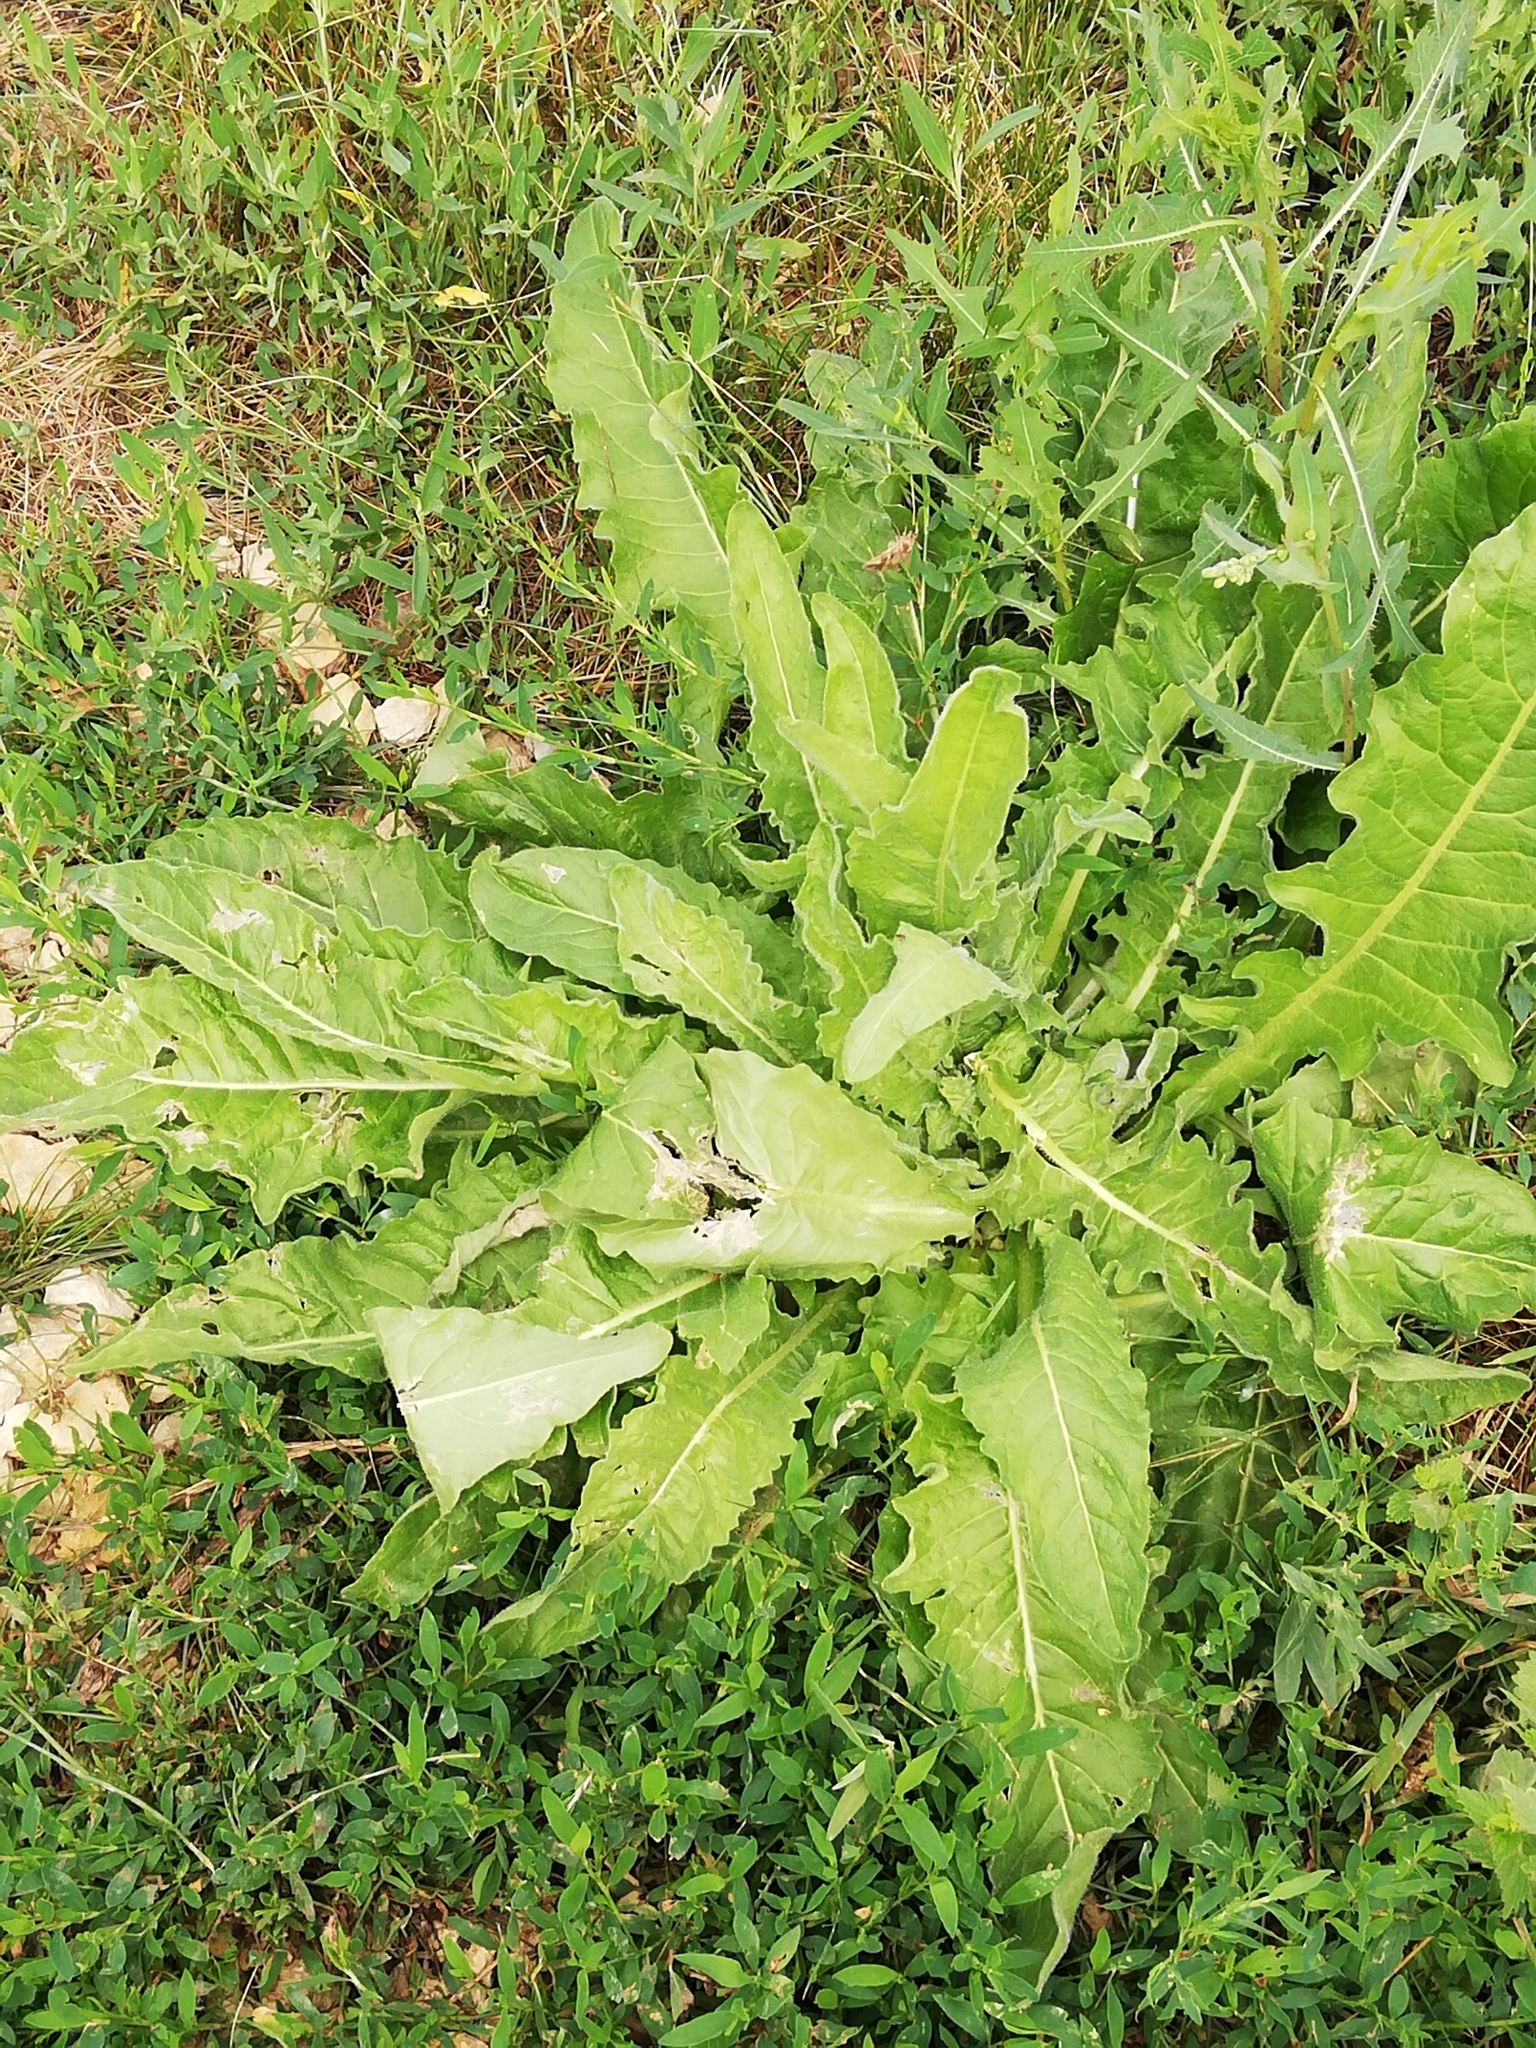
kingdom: Plantae
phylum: Tracheophyta
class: Magnoliopsida
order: Brassicales
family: Brassicaceae
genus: Bunias
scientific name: Bunias orientalis
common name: Warty-cabbage
